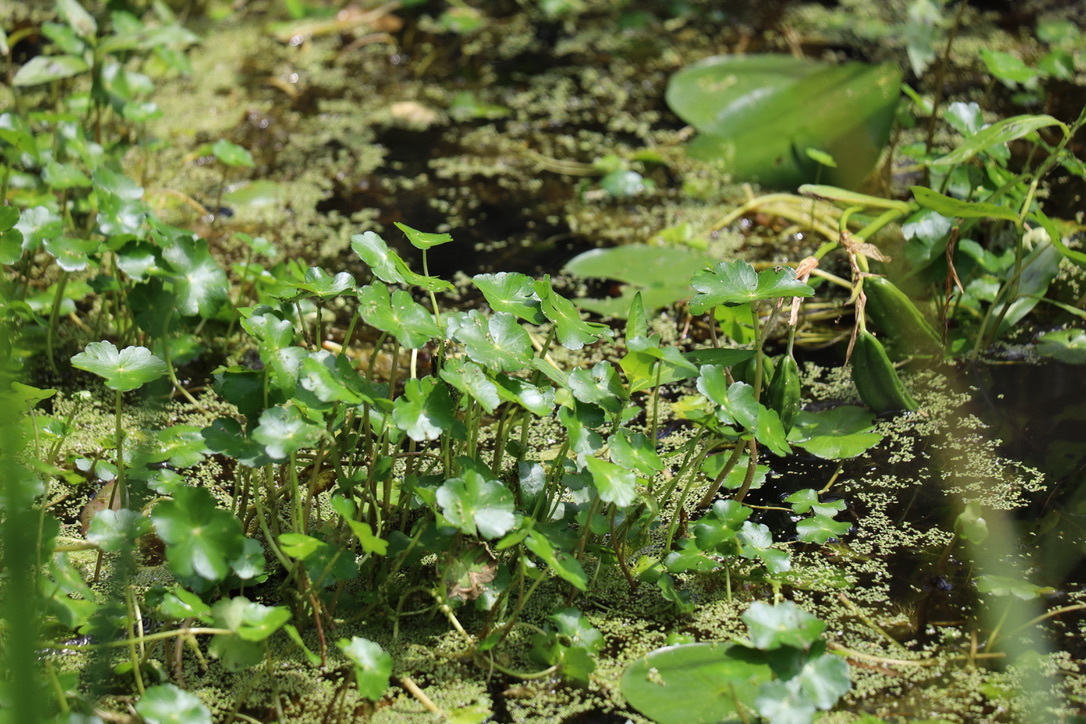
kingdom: Plantae
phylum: Tracheophyta
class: Magnoliopsida
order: Apiales
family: Araliaceae
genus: Hydrocotyle
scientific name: Hydrocotyle ranunculoides
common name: Floating pennywort
